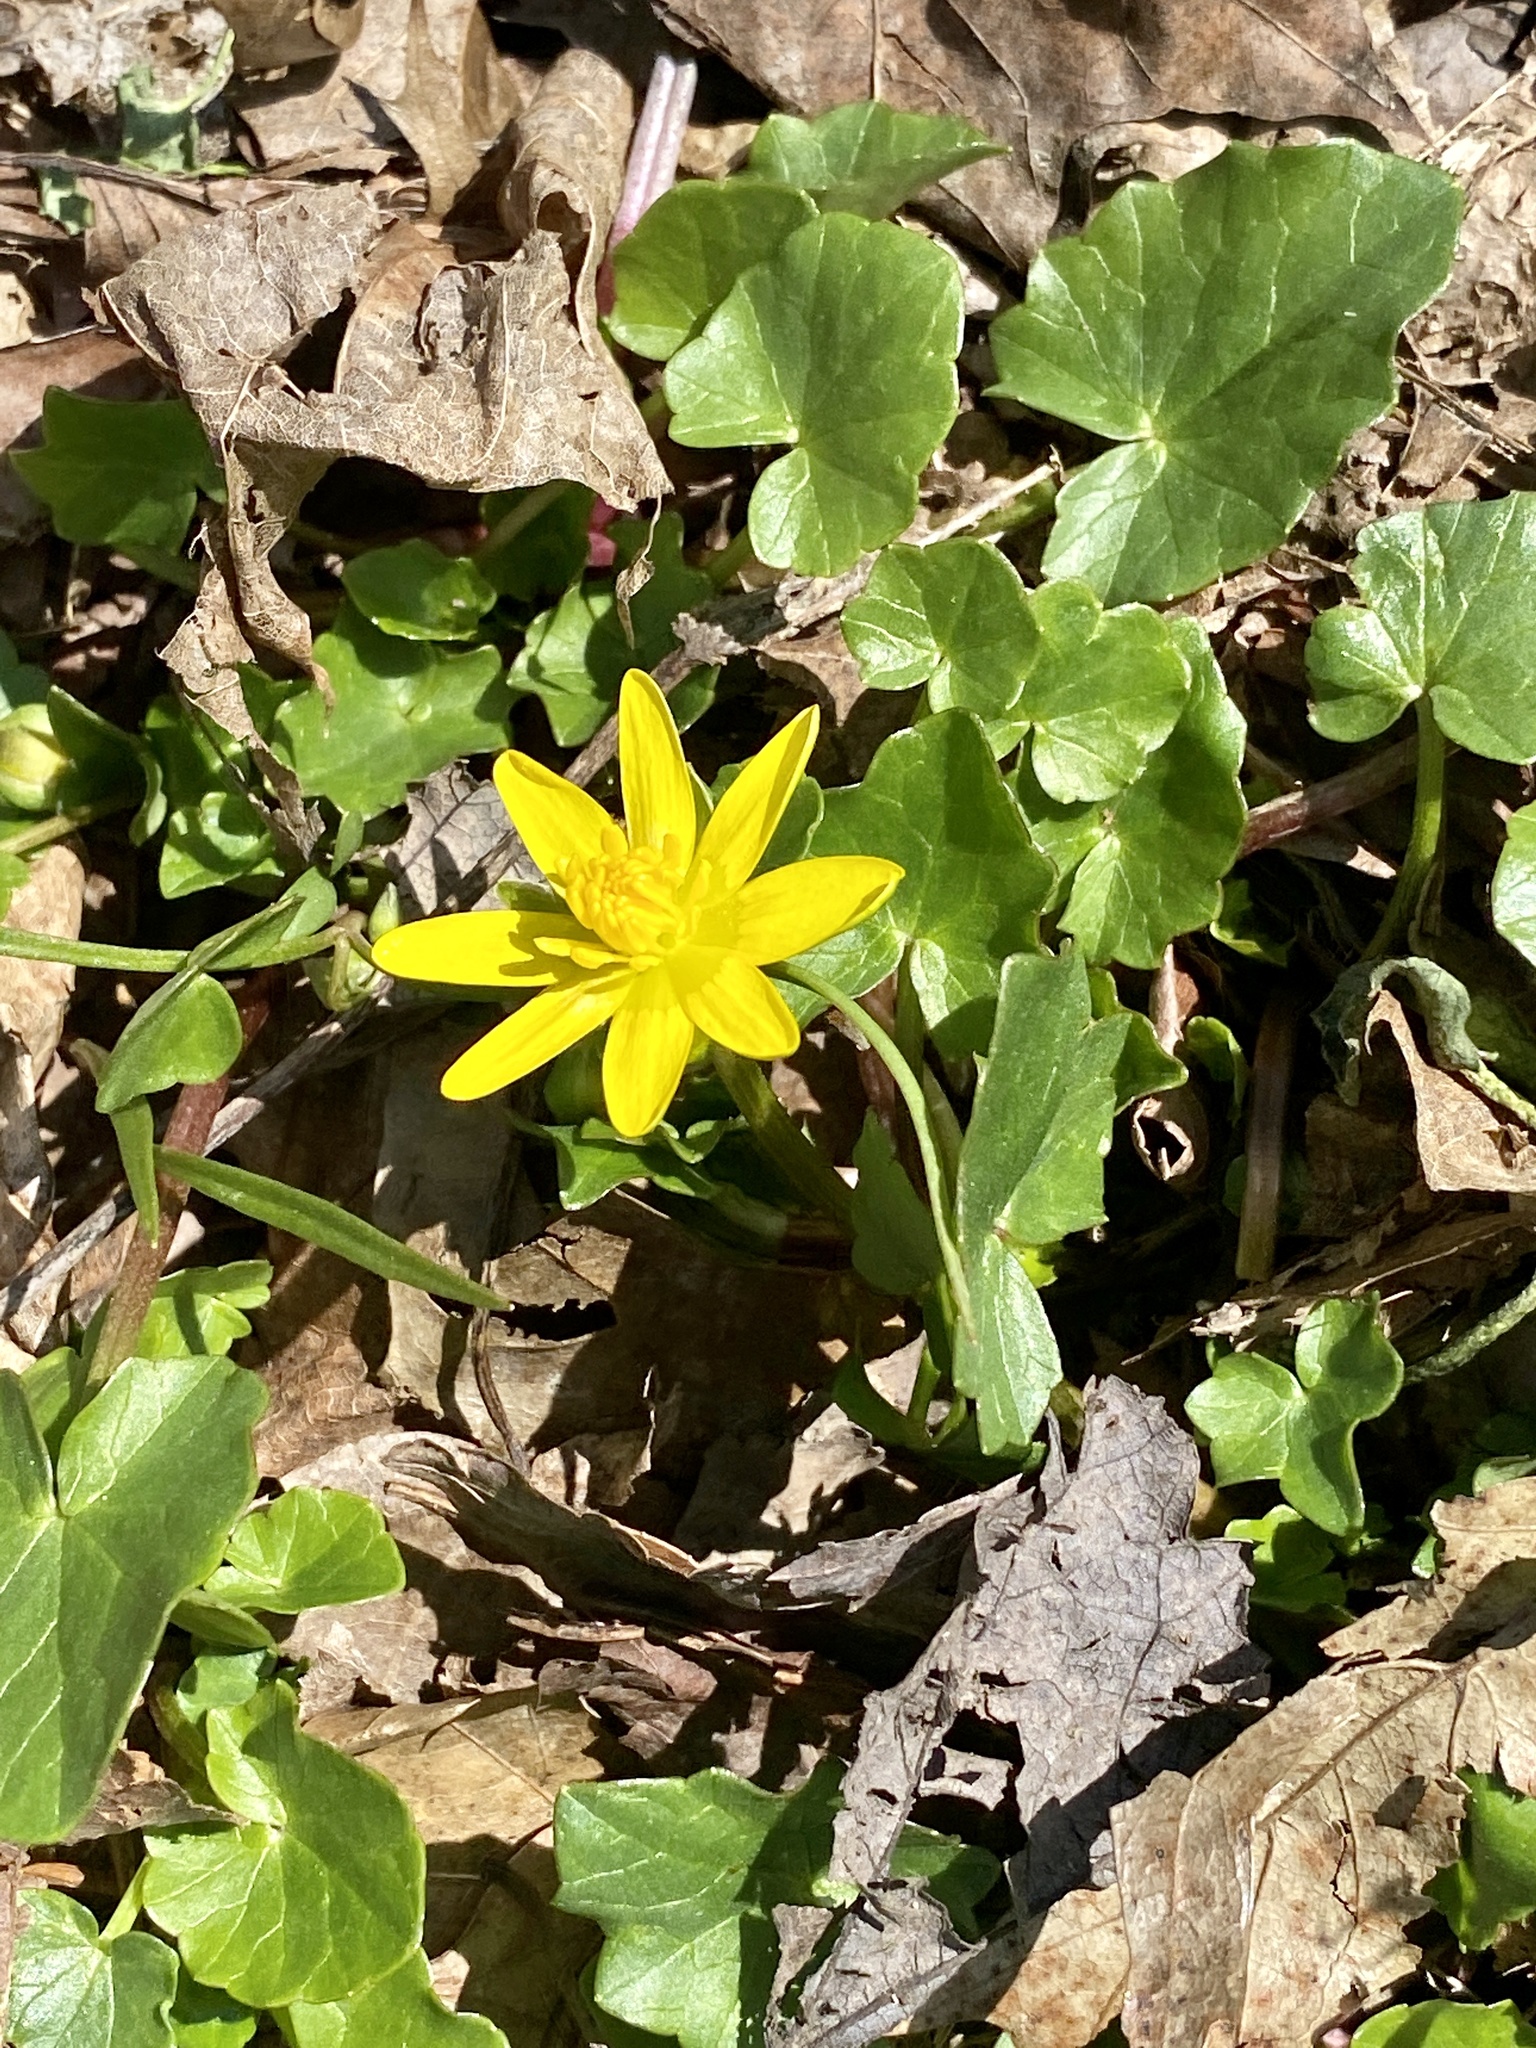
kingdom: Plantae
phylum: Tracheophyta
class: Magnoliopsida
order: Ranunculales
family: Ranunculaceae
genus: Ficaria
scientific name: Ficaria verna
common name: Lesser celandine
